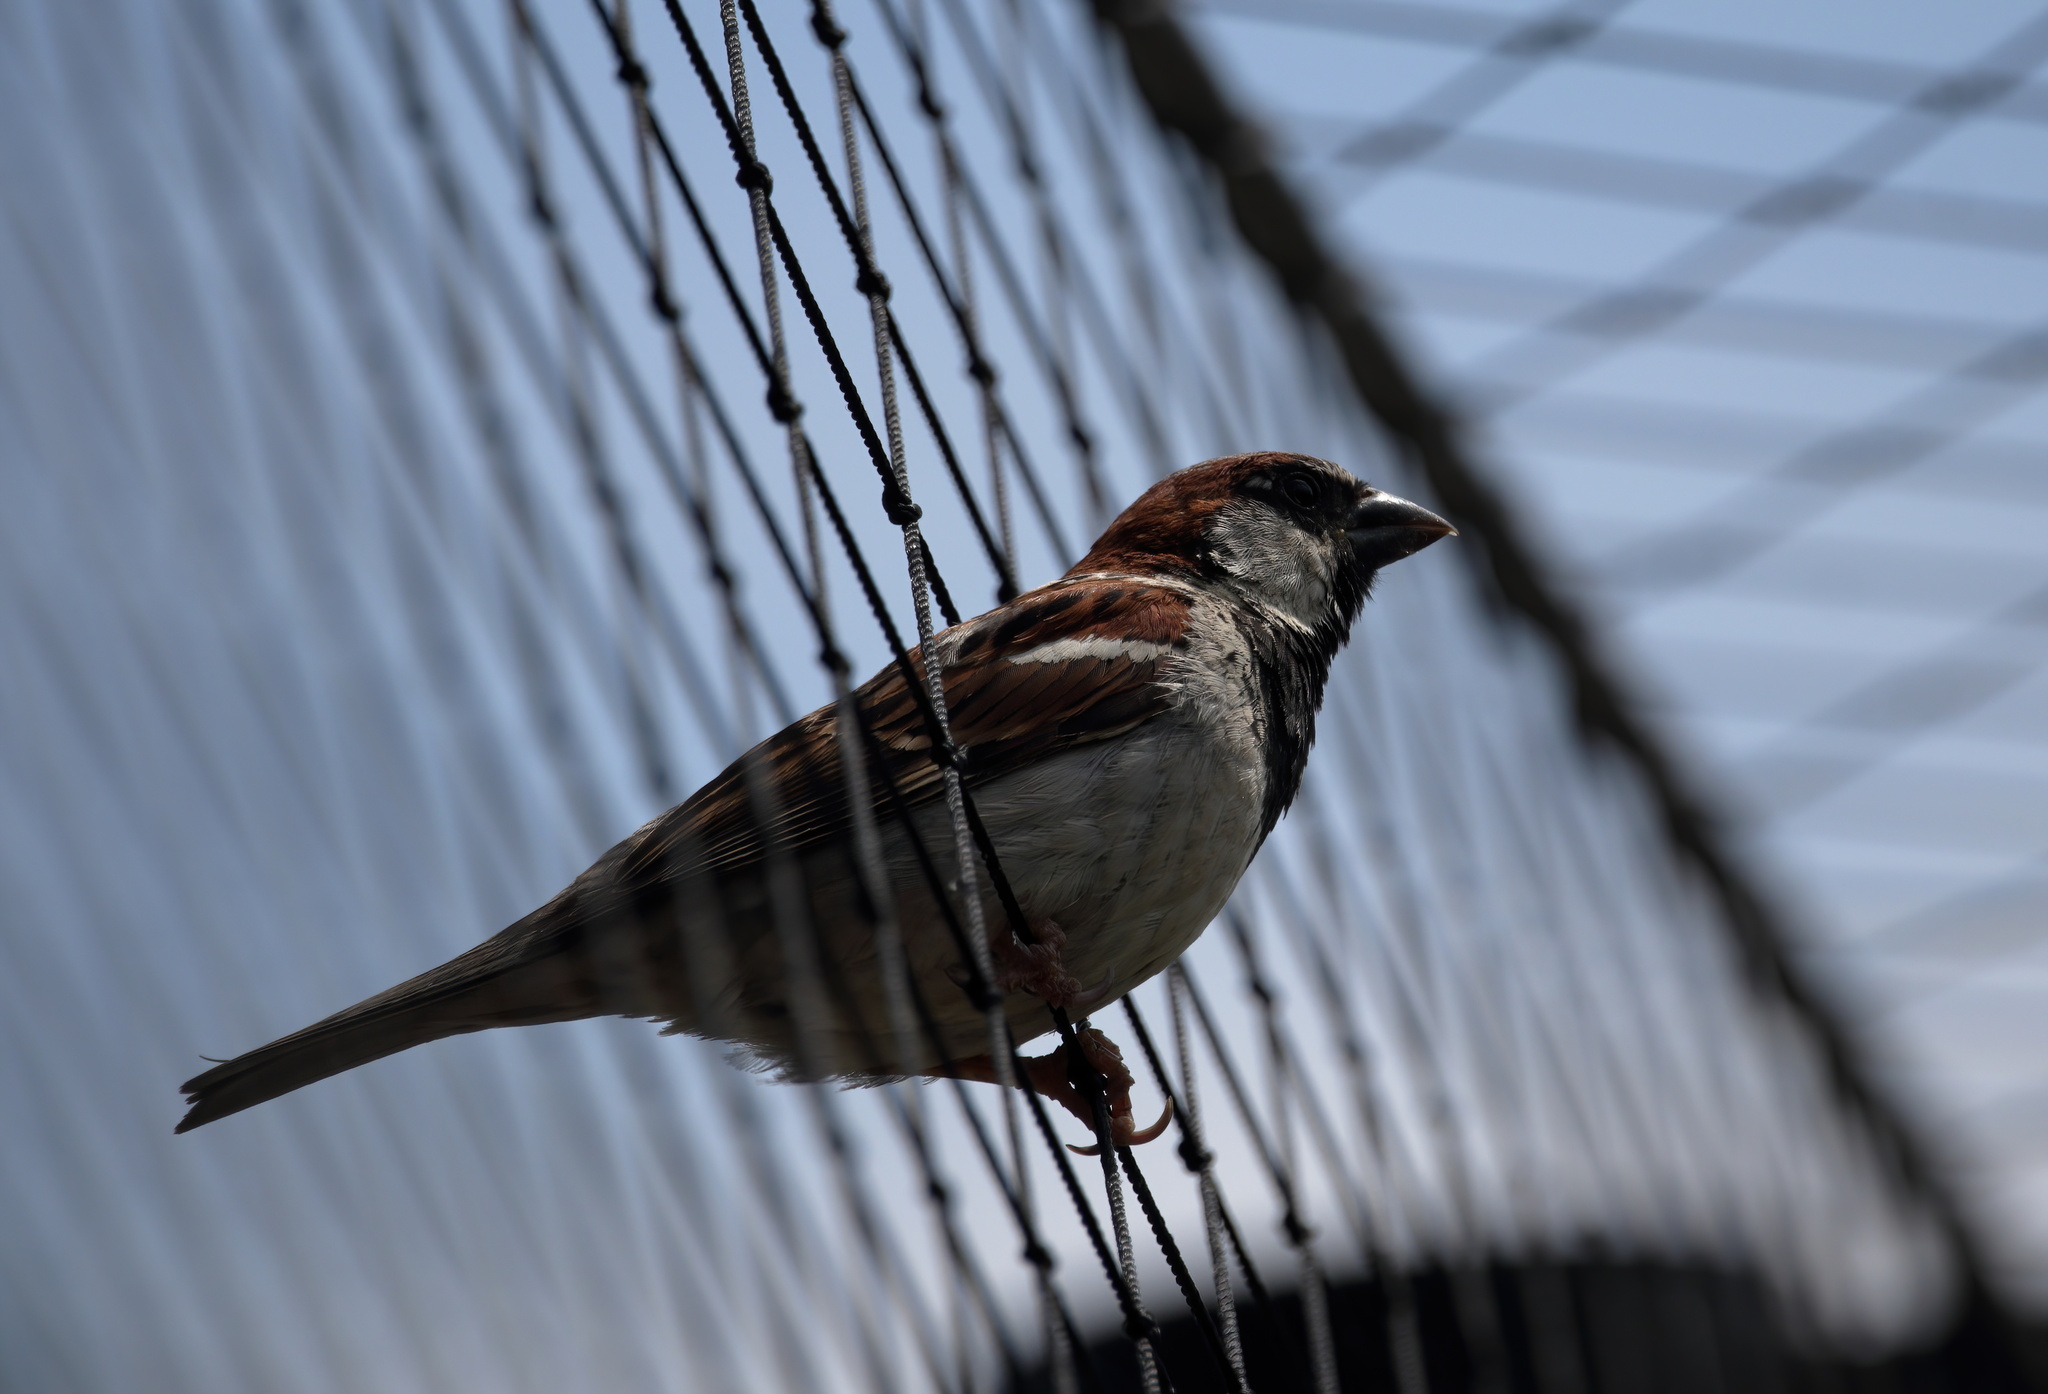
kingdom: Animalia
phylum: Chordata
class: Aves
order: Passeriformes
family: Passeridae
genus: Passer
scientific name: Passer domesticus
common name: House sparrow
